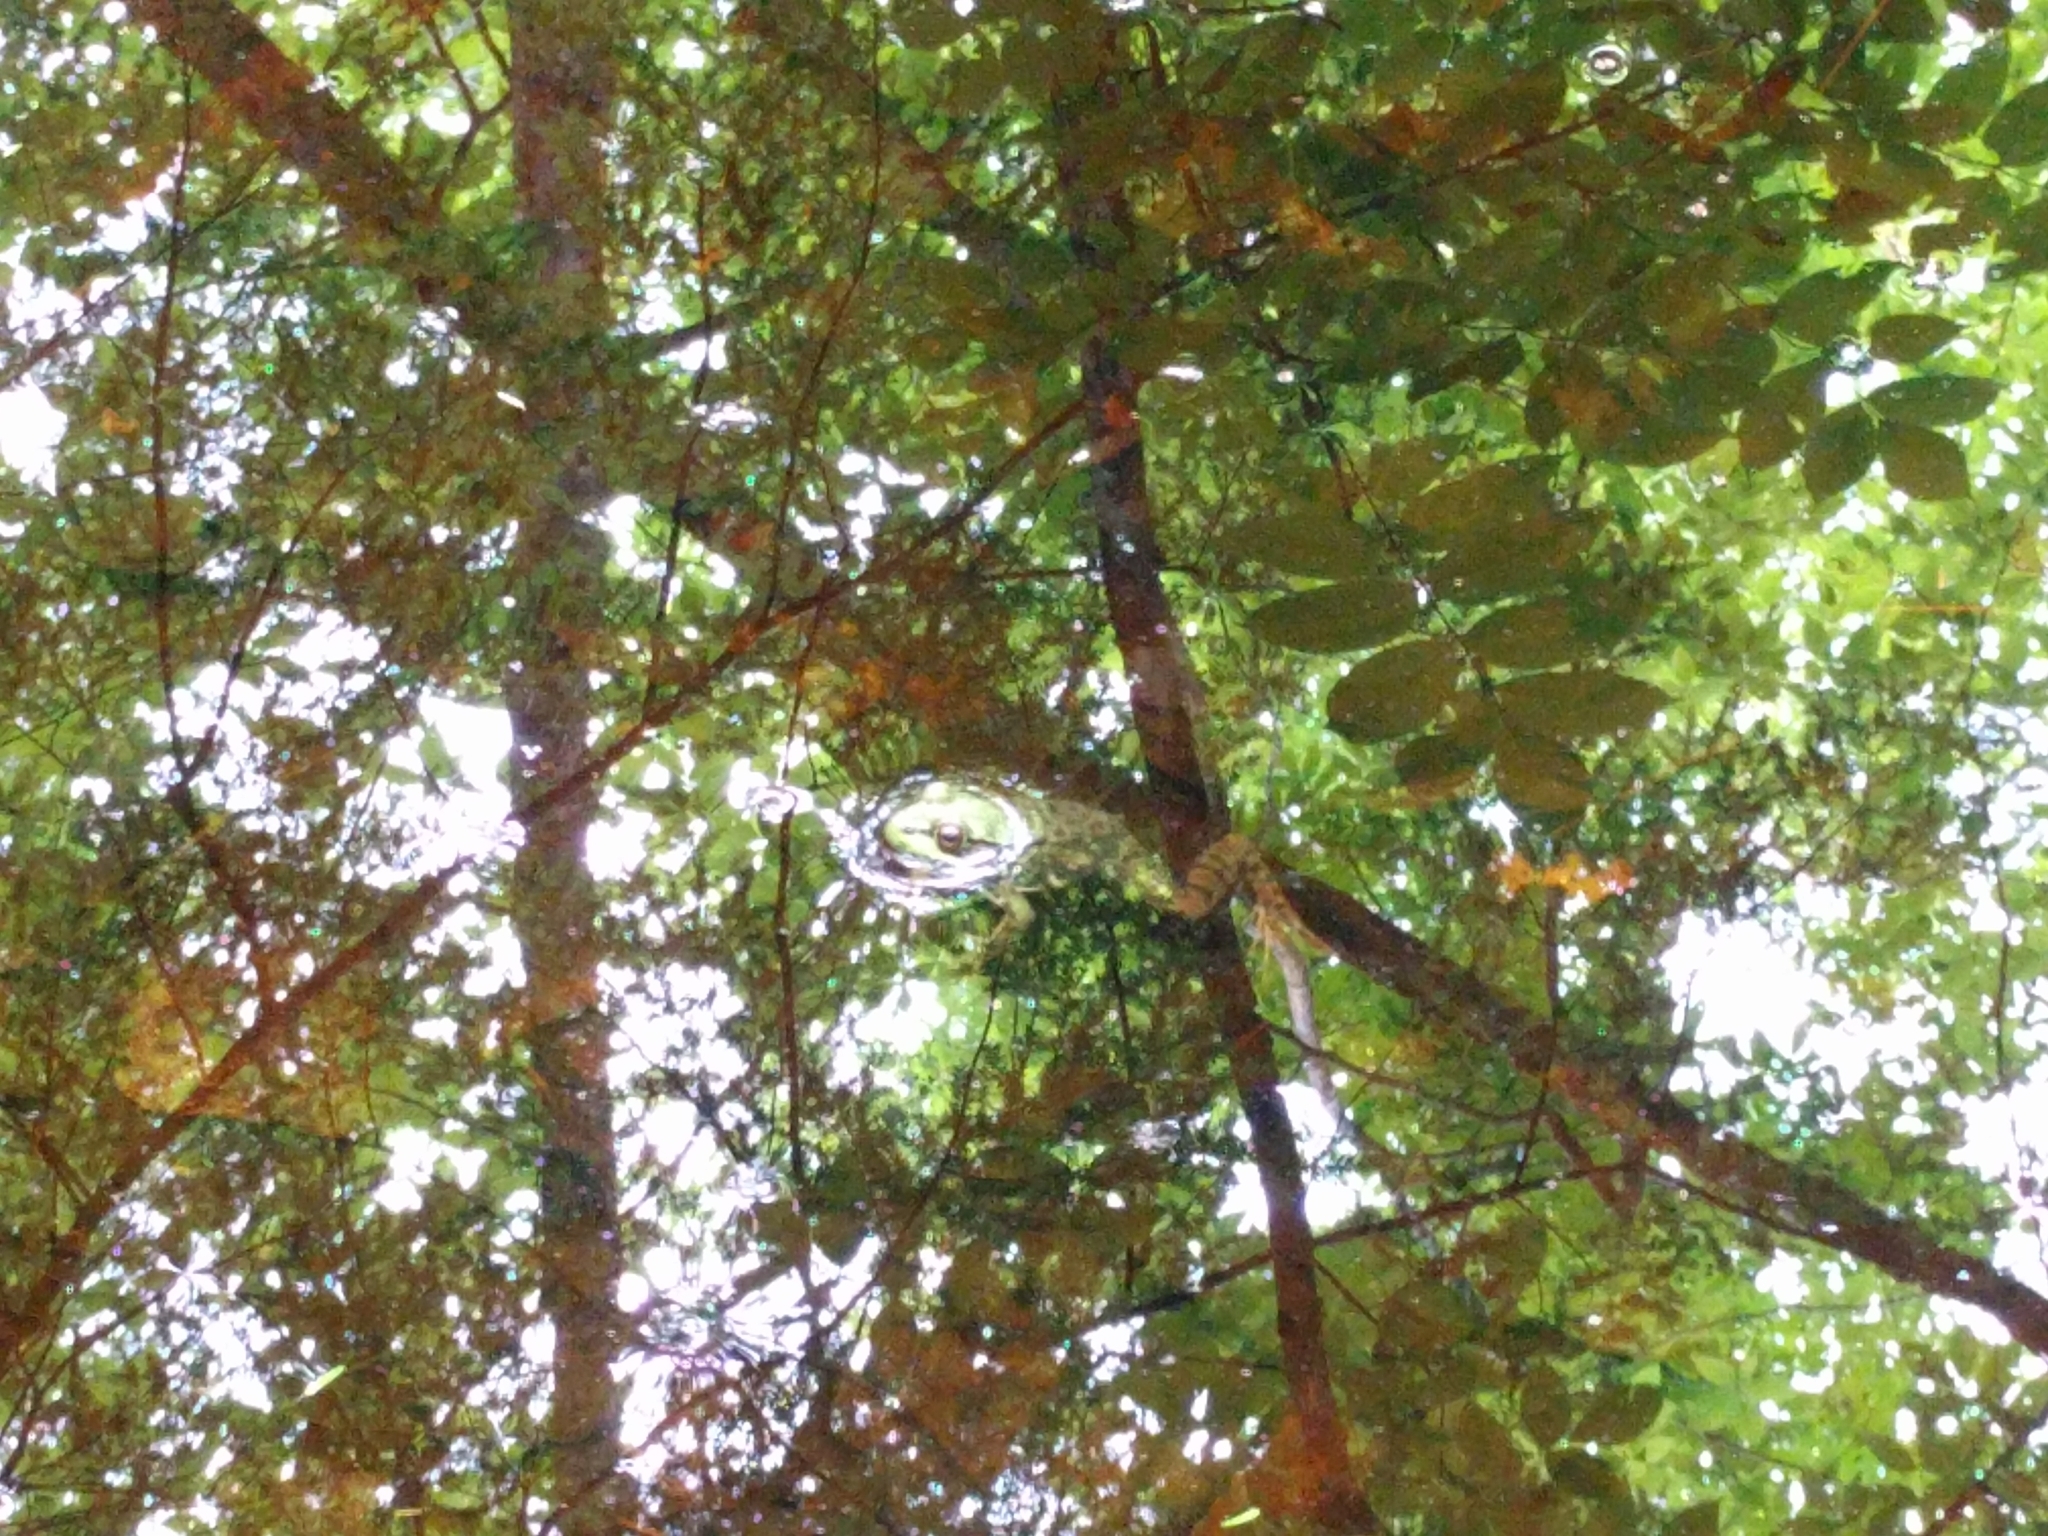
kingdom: Animalia
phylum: Chordata
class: Amphibia
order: Anura
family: Ranidae
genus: Lithobates
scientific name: Lithobates clamitans
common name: Green frog
